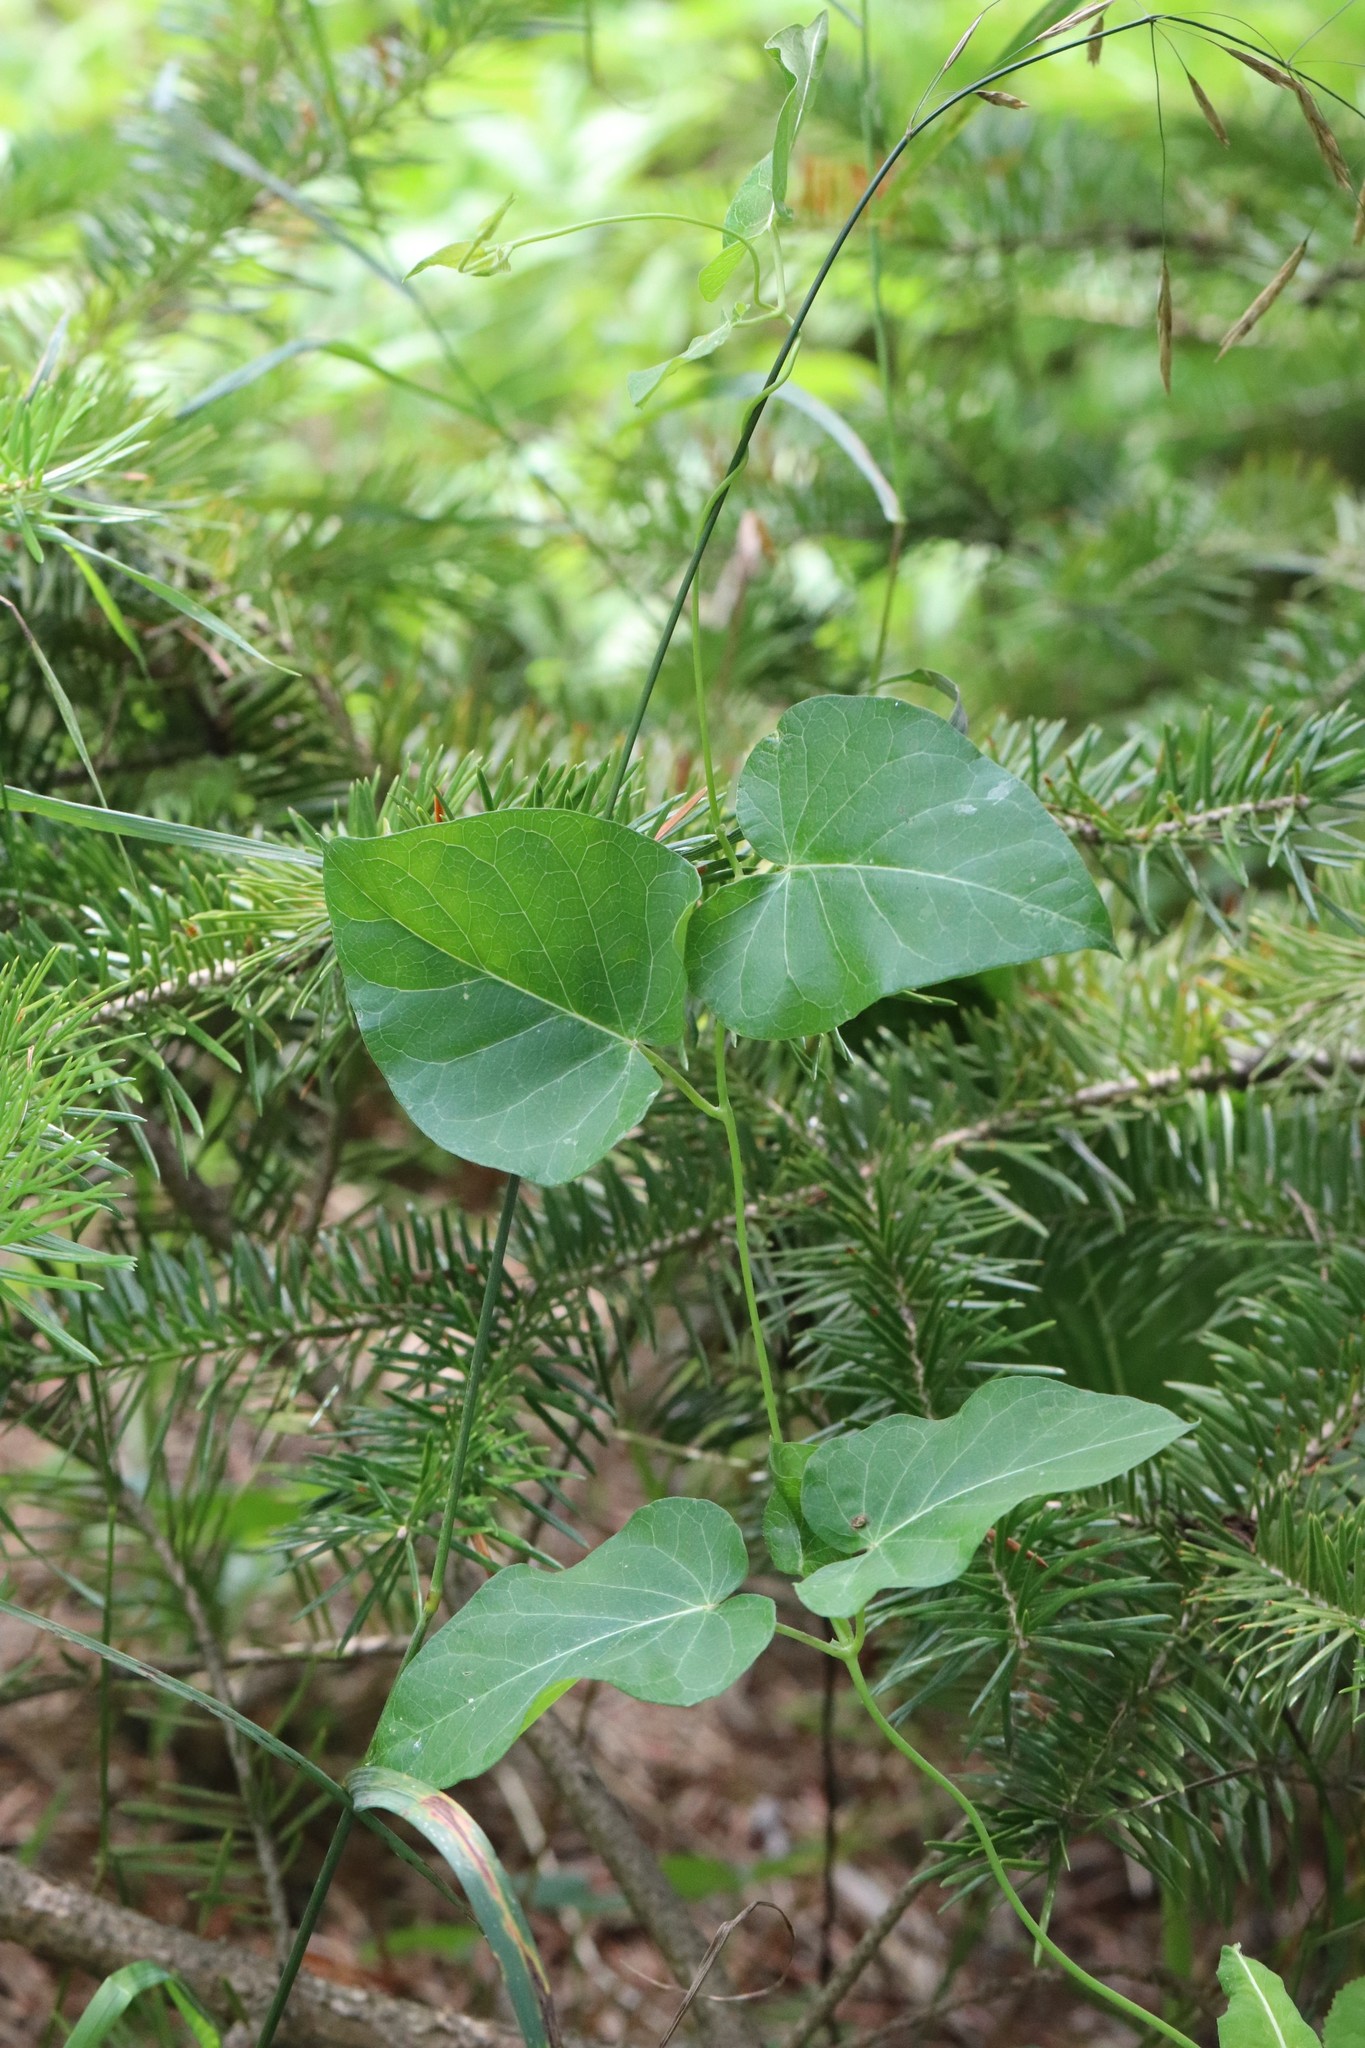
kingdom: Plantae
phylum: Tracheophyta
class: Magnoliopsida
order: Gentianales
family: Apocynaceae
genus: Cynanchum
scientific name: Cynanchum rostellatum
